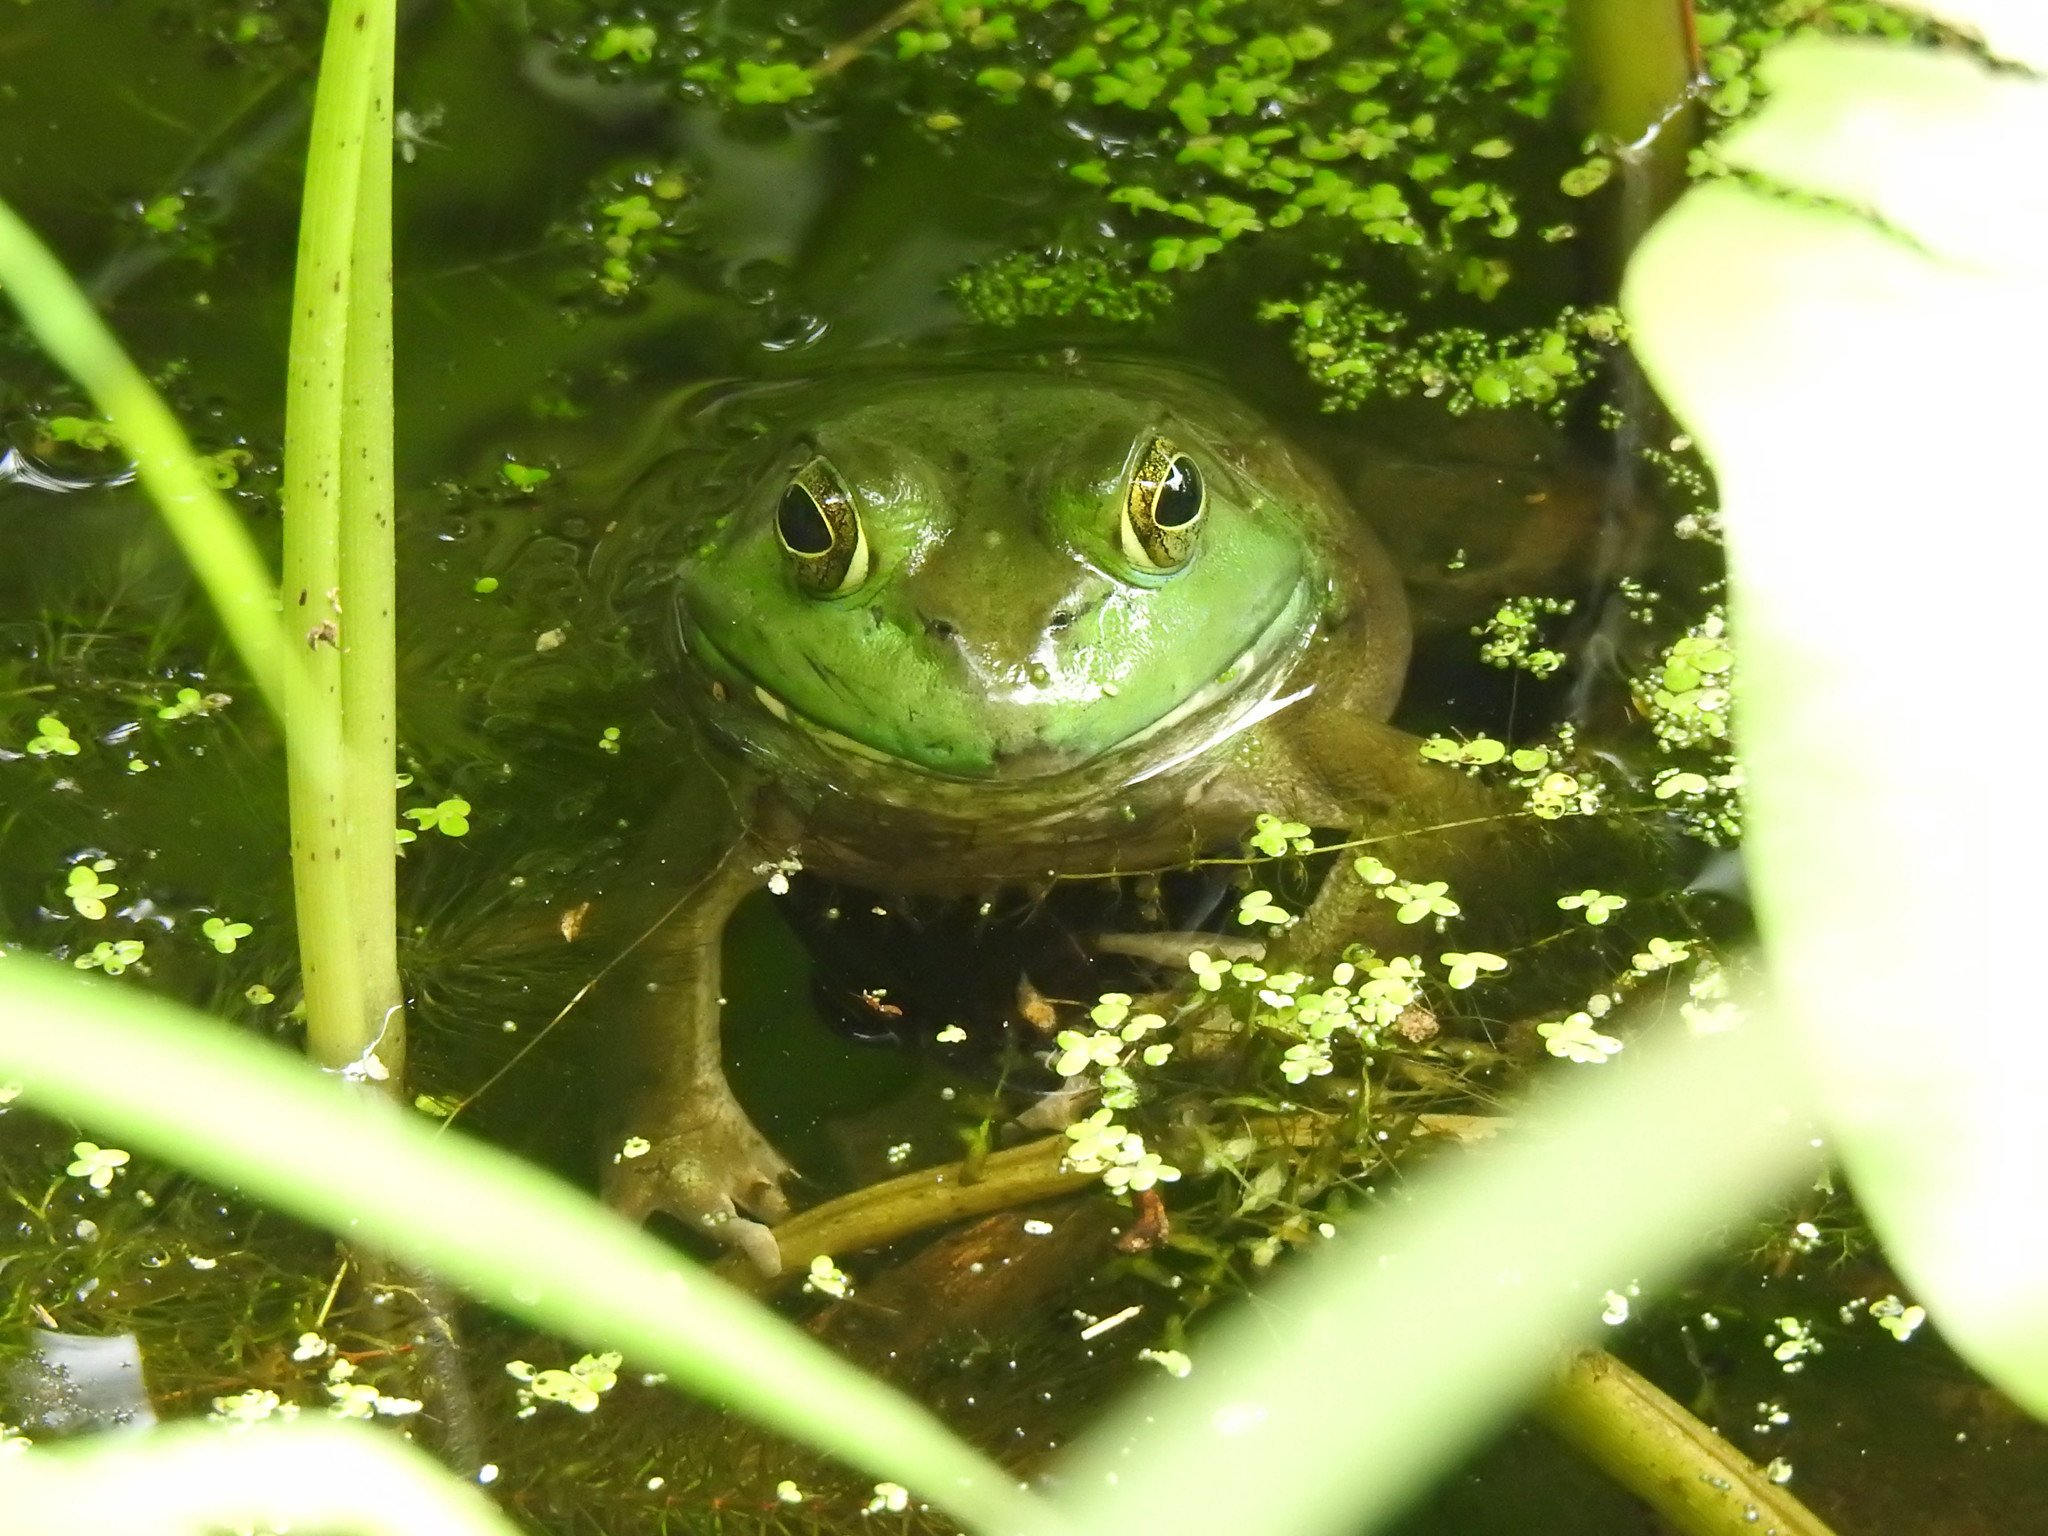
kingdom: Animalia
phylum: Chordata
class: Amphibia
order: Anura
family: Ranidae
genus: Lithobates
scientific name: Lithobates catesbeianus
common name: American bullfrog
